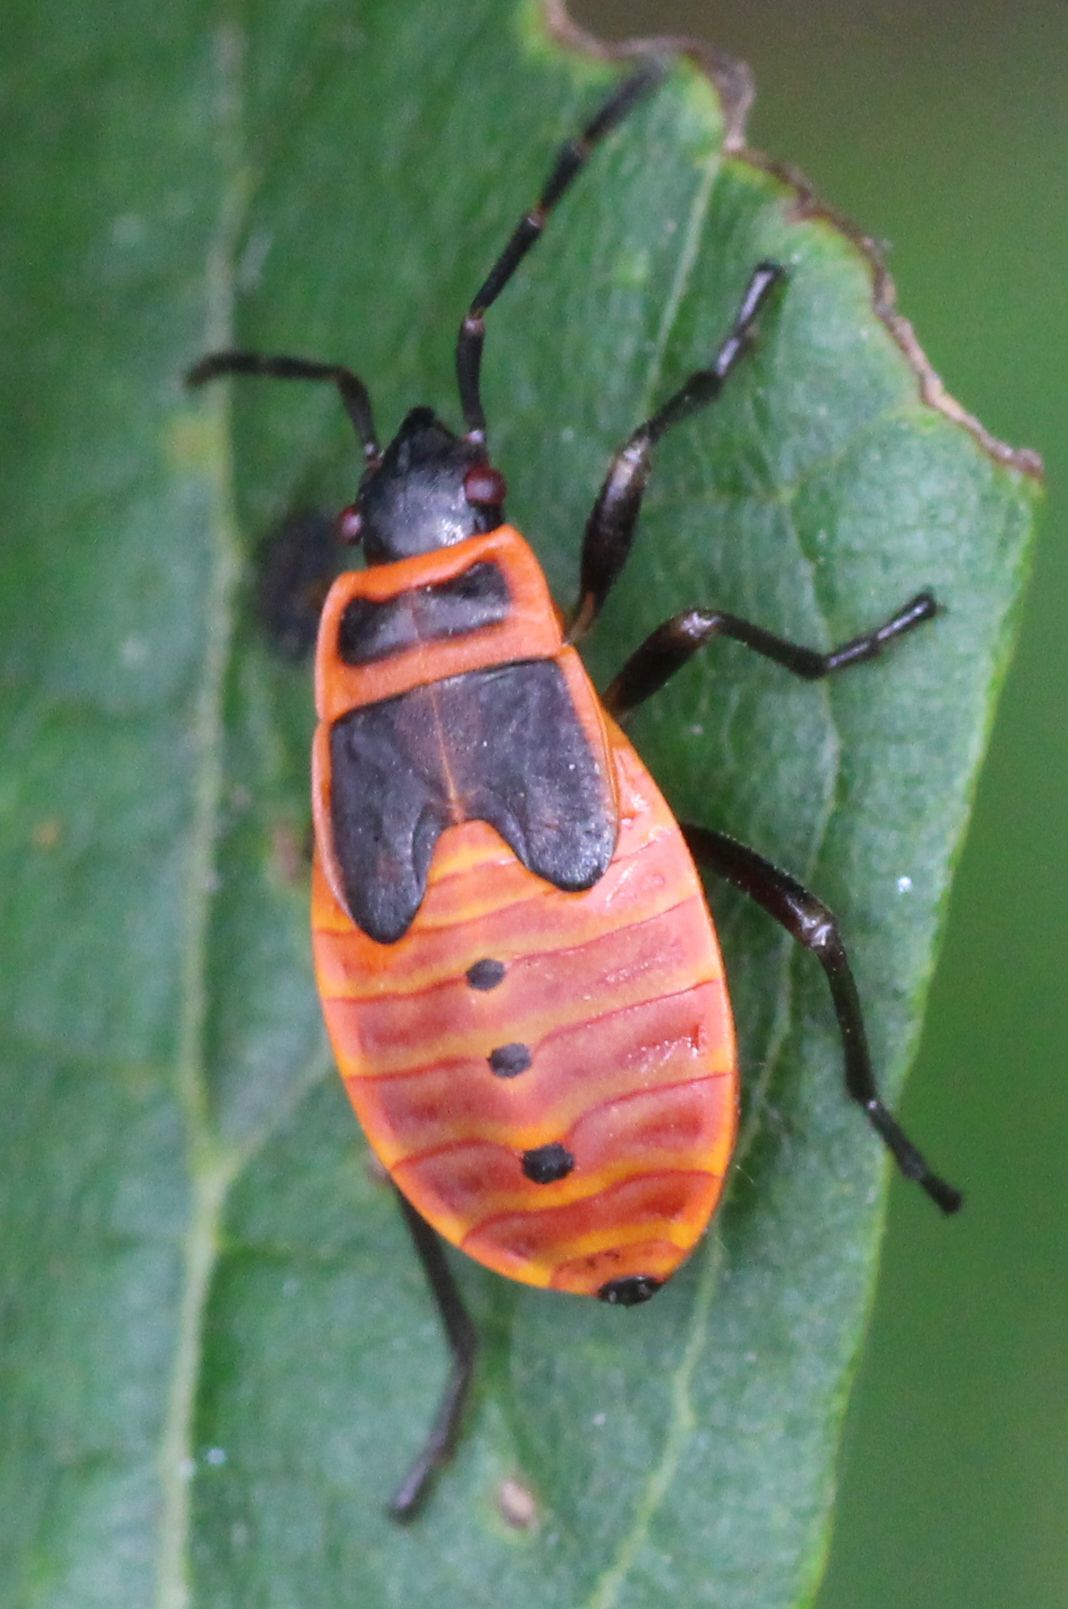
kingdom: Animalia
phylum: Arthropoda
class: Insecta
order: Hemiptera
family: Pyrrhocoridae
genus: Pyrrhocoris
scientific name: Pyrrhocoris apterus
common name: Firebug
